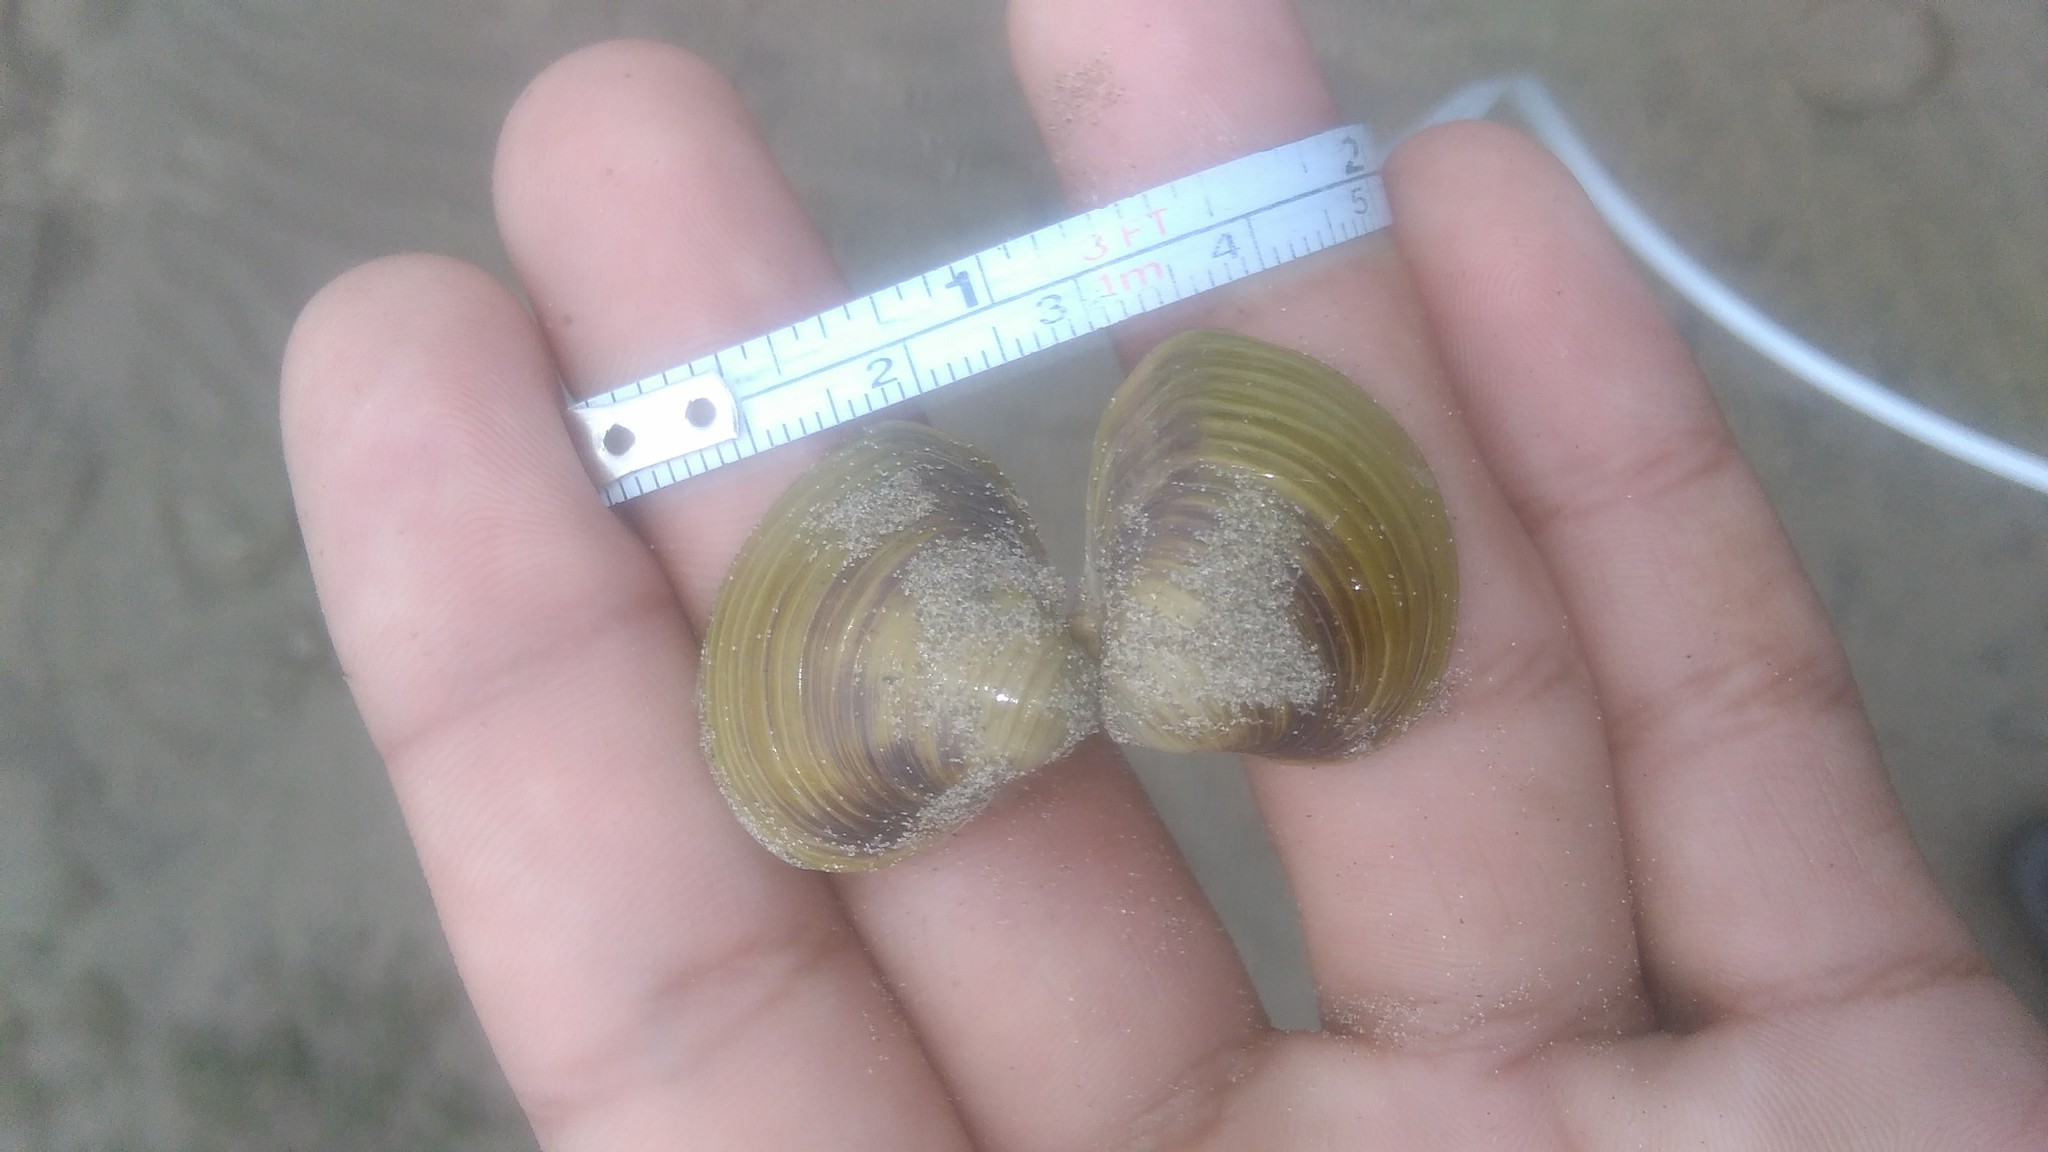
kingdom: Animalia
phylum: Mollusca
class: Bivalvia
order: Venerida
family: Cyrenidae
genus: Corbicula
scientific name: Corbicula fluminea
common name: Asian clam
